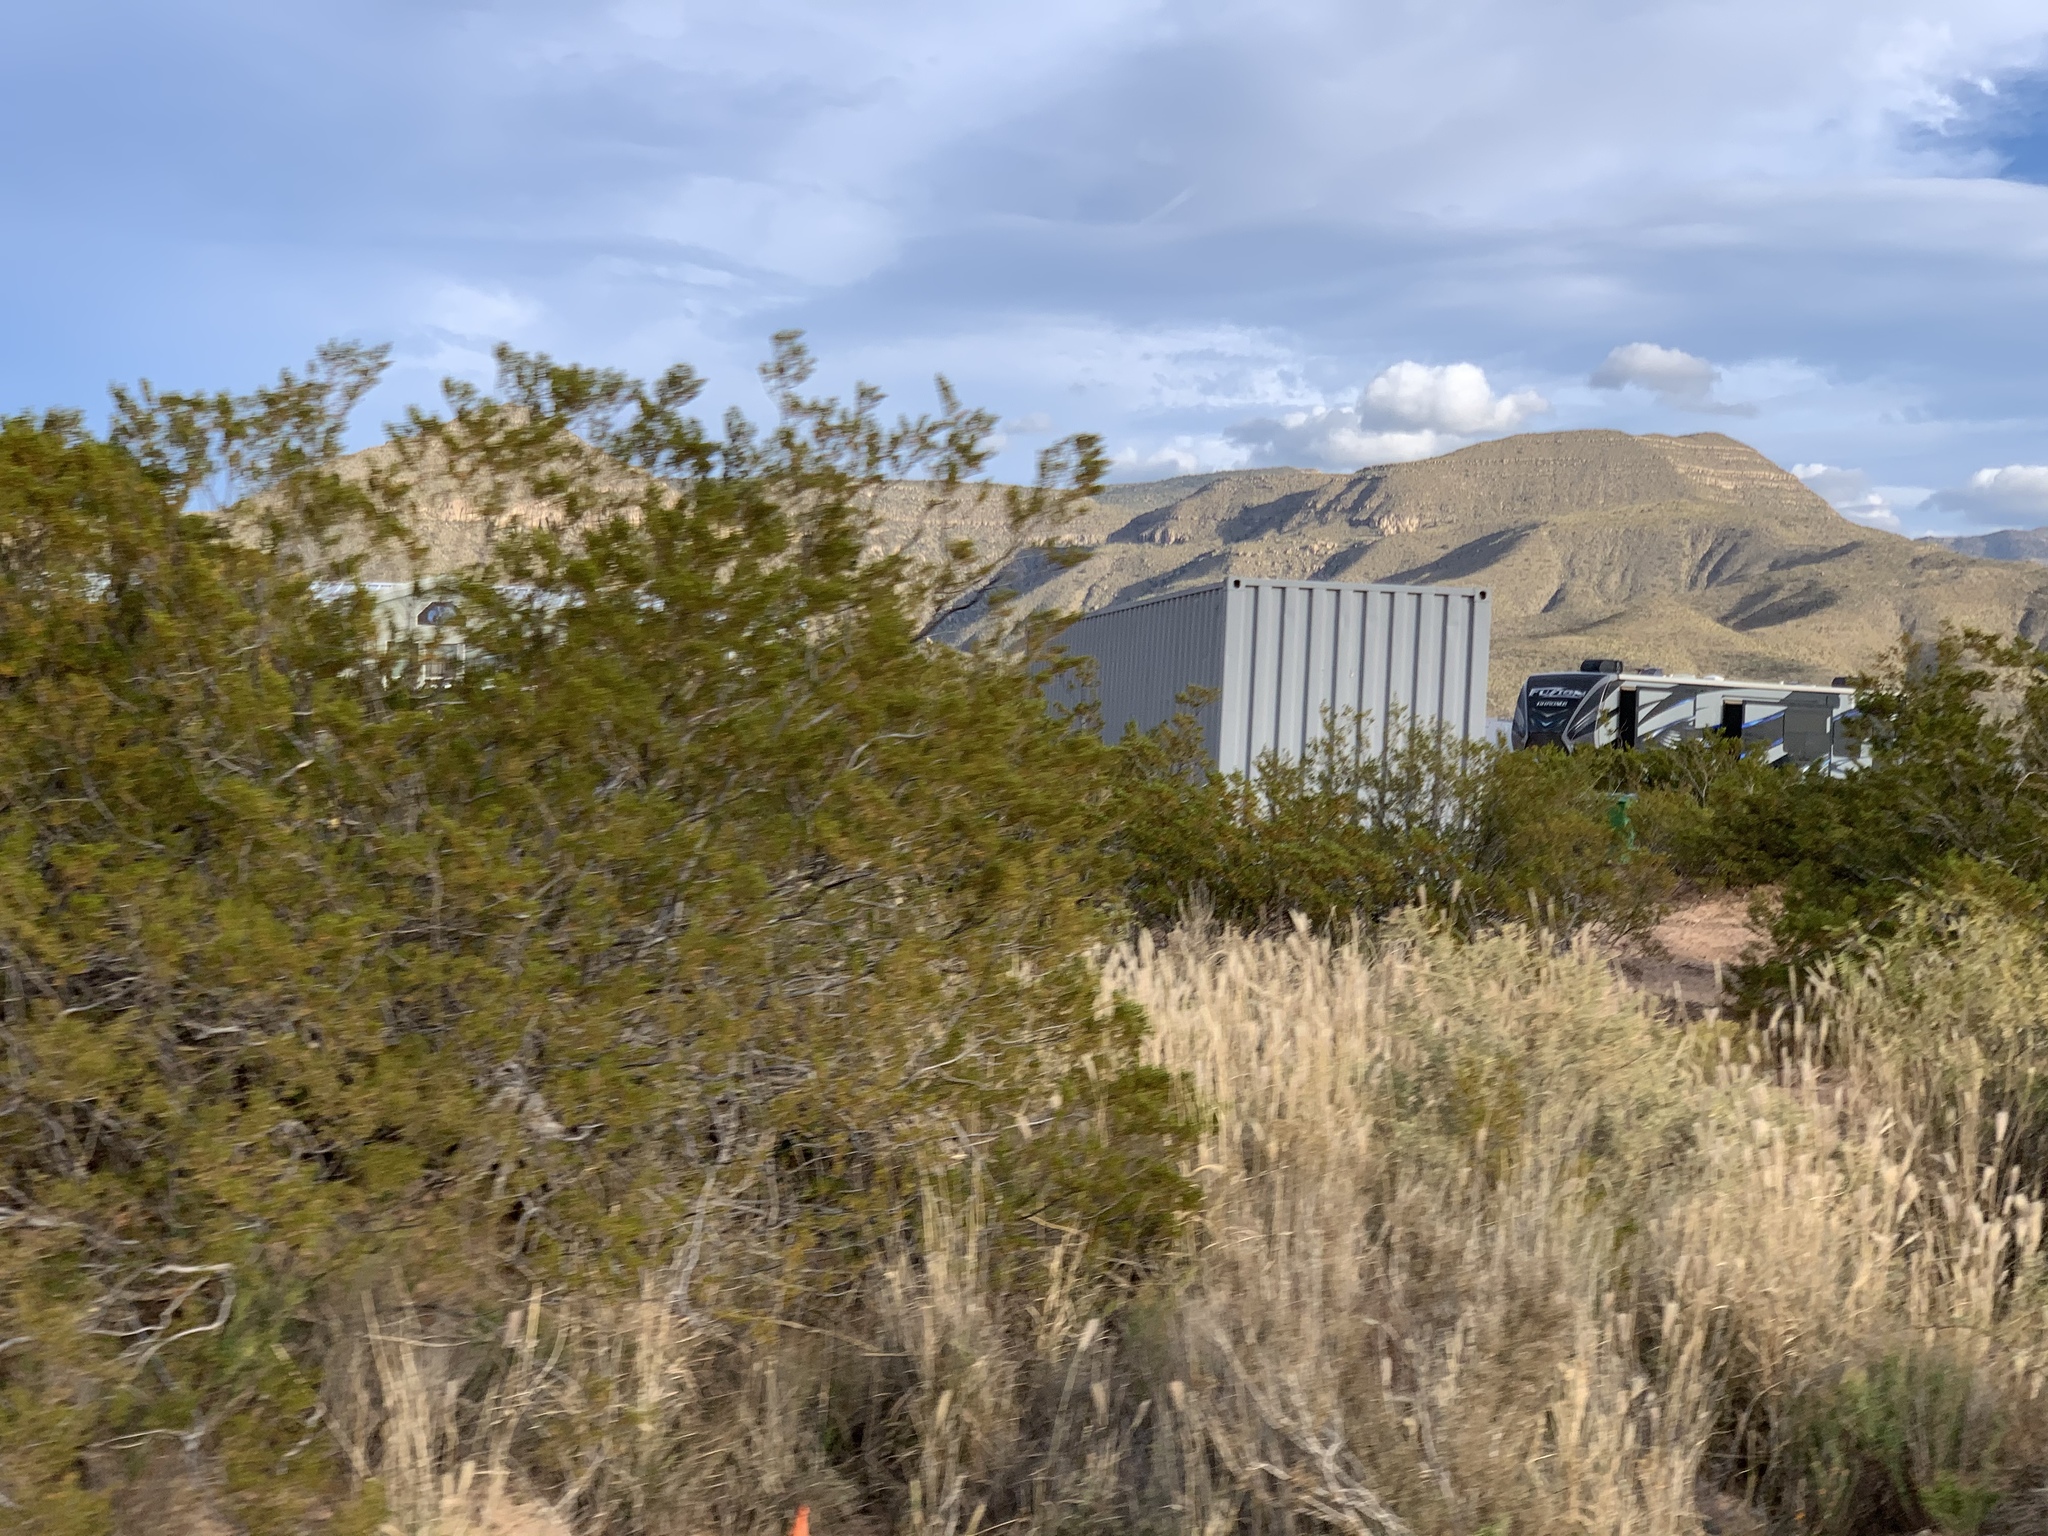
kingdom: Plantae
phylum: Tracheophyta
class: Magnoliopsida
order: Zygophyllales
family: Zygophyllaceae
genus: Larrea
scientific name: Larrea tridentata
